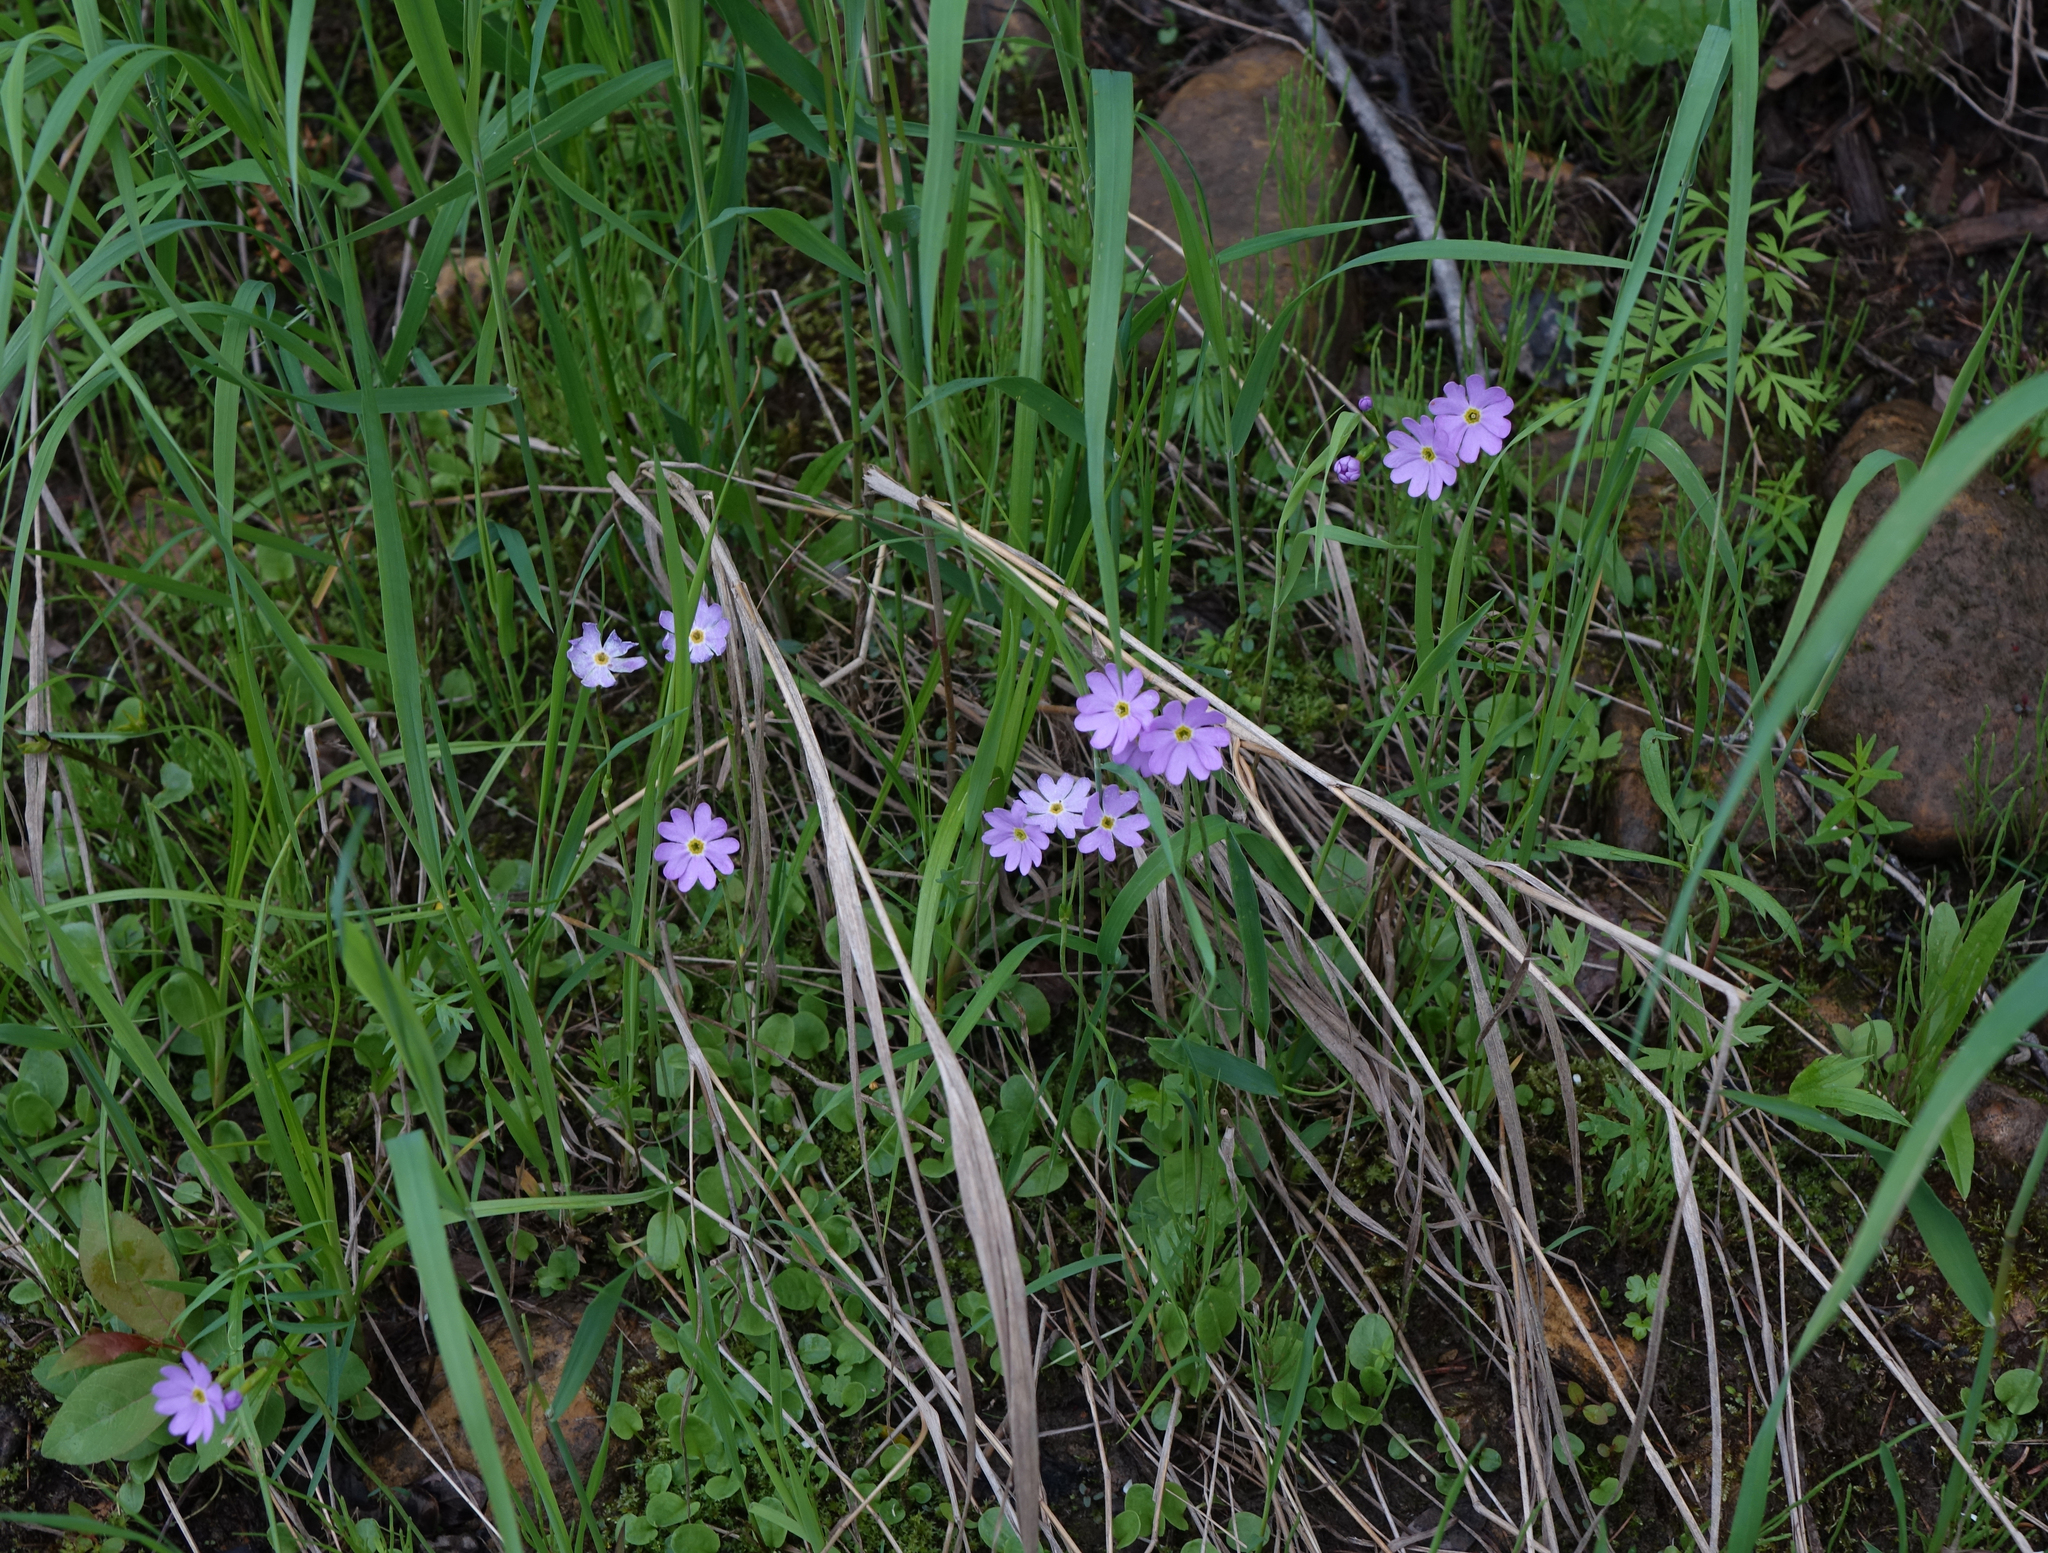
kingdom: Plantae
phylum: Tracheophyta
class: Magnoliopsida
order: Ericales
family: Primulaceae
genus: Primula
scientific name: Primula nutans
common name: Siberian primrose
